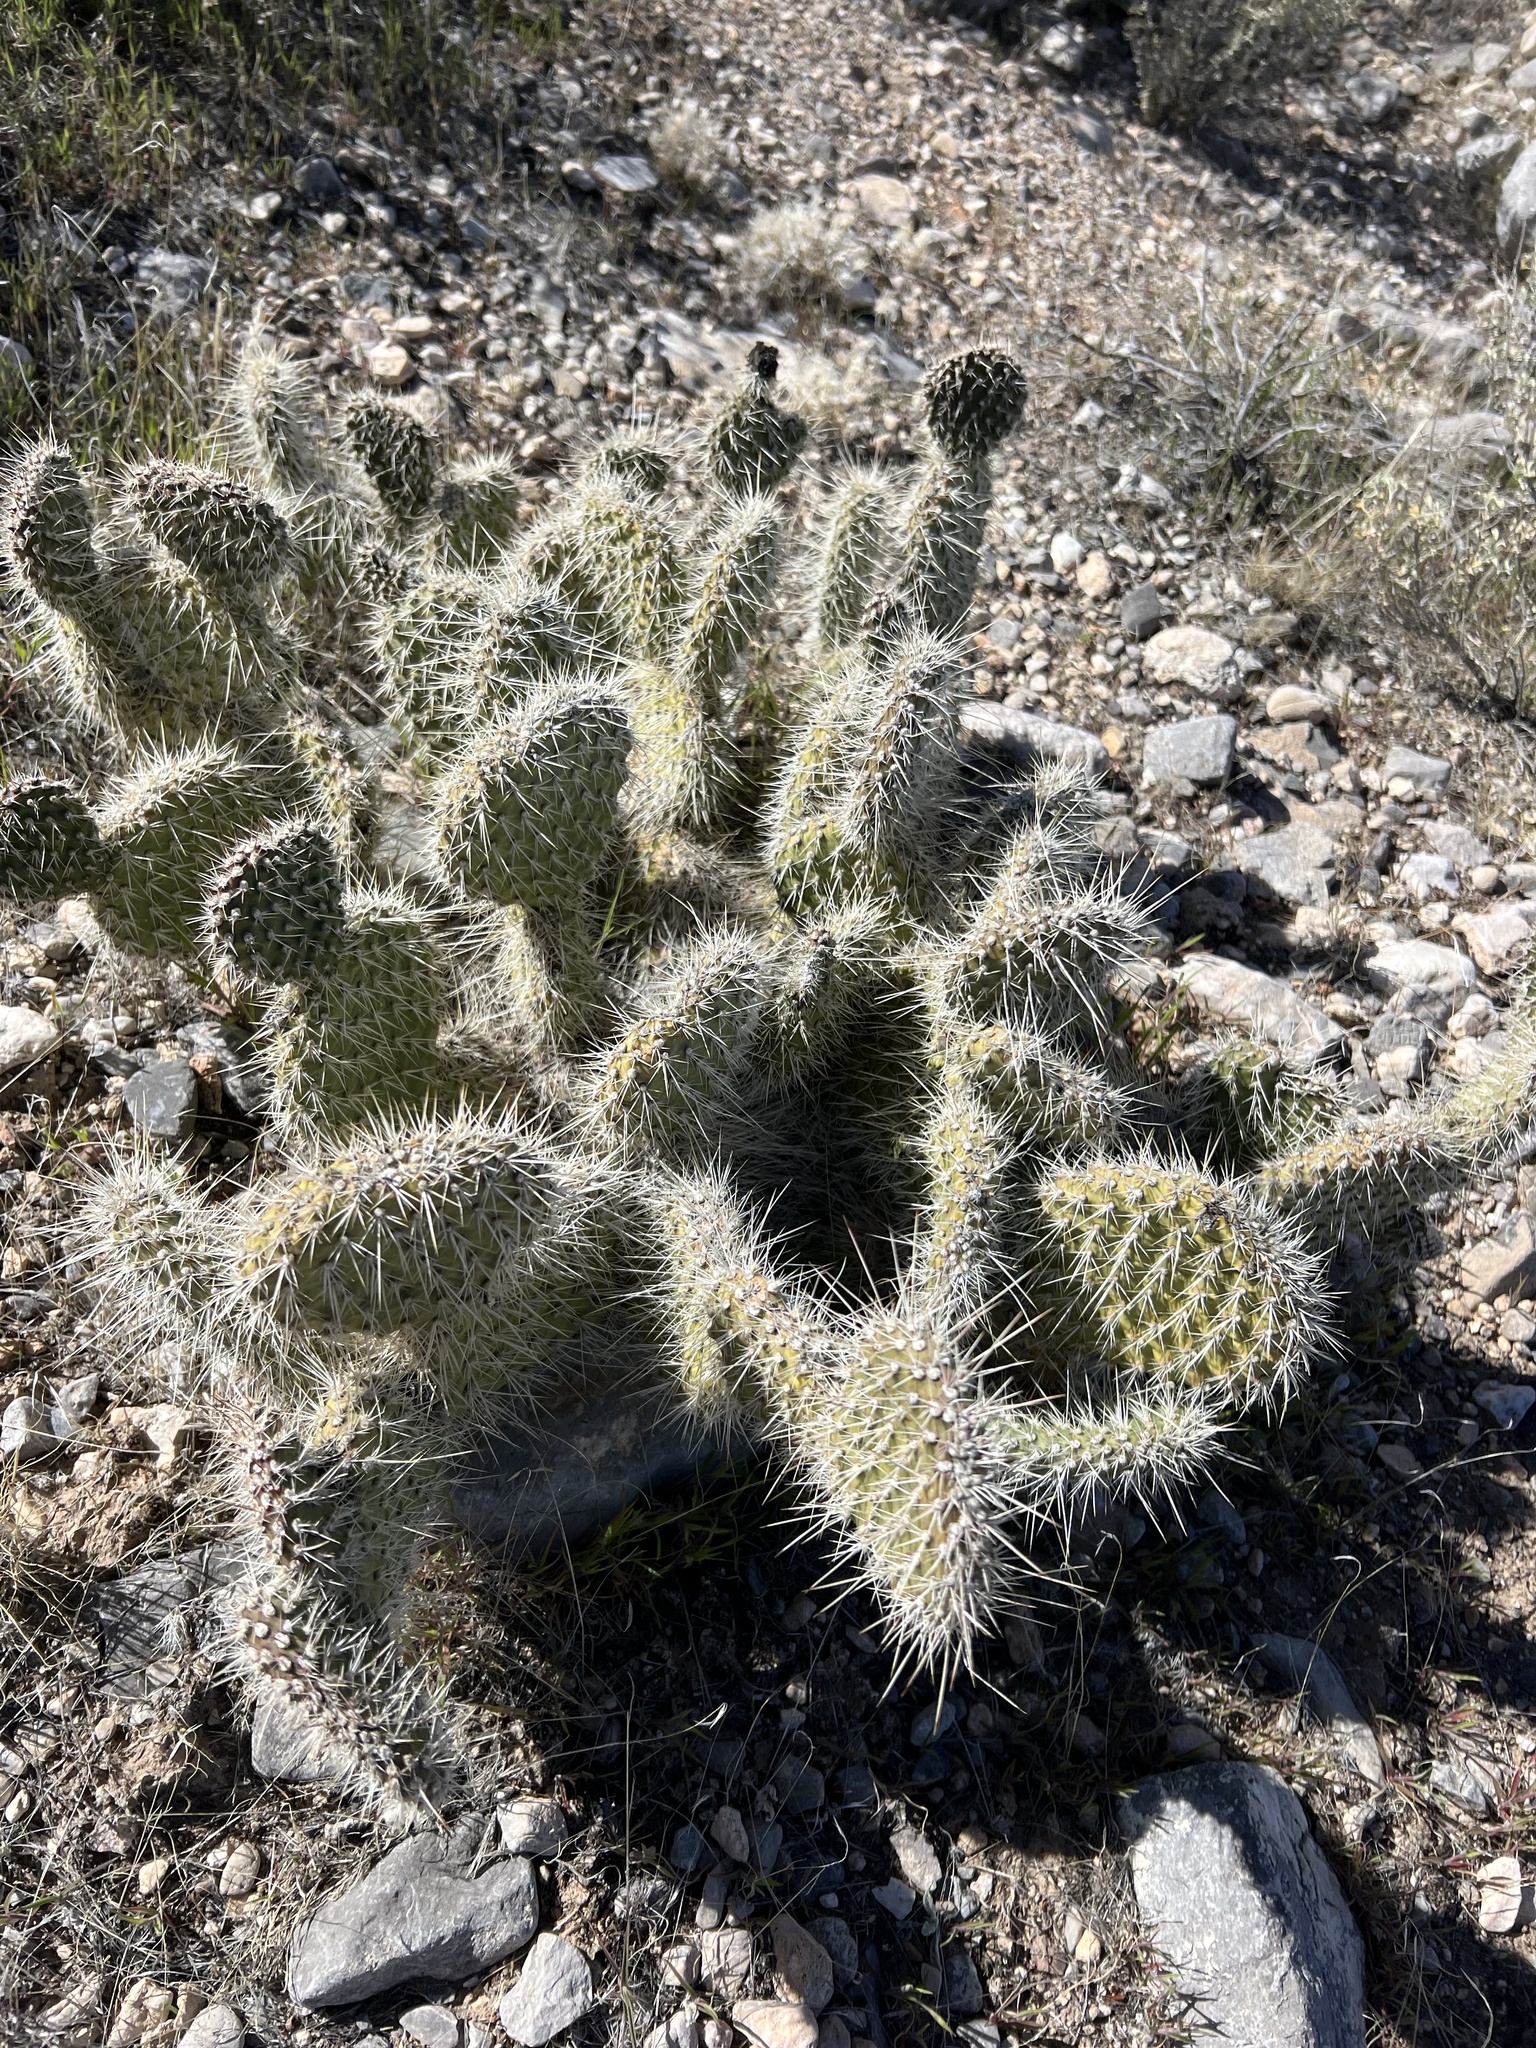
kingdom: Plantae
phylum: Tracheophyta
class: Magnoliopsida
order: Caryophyllales
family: Cactaceae
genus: Opuntia
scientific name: Opuntia polyacantha
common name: Plains prickly-pear
